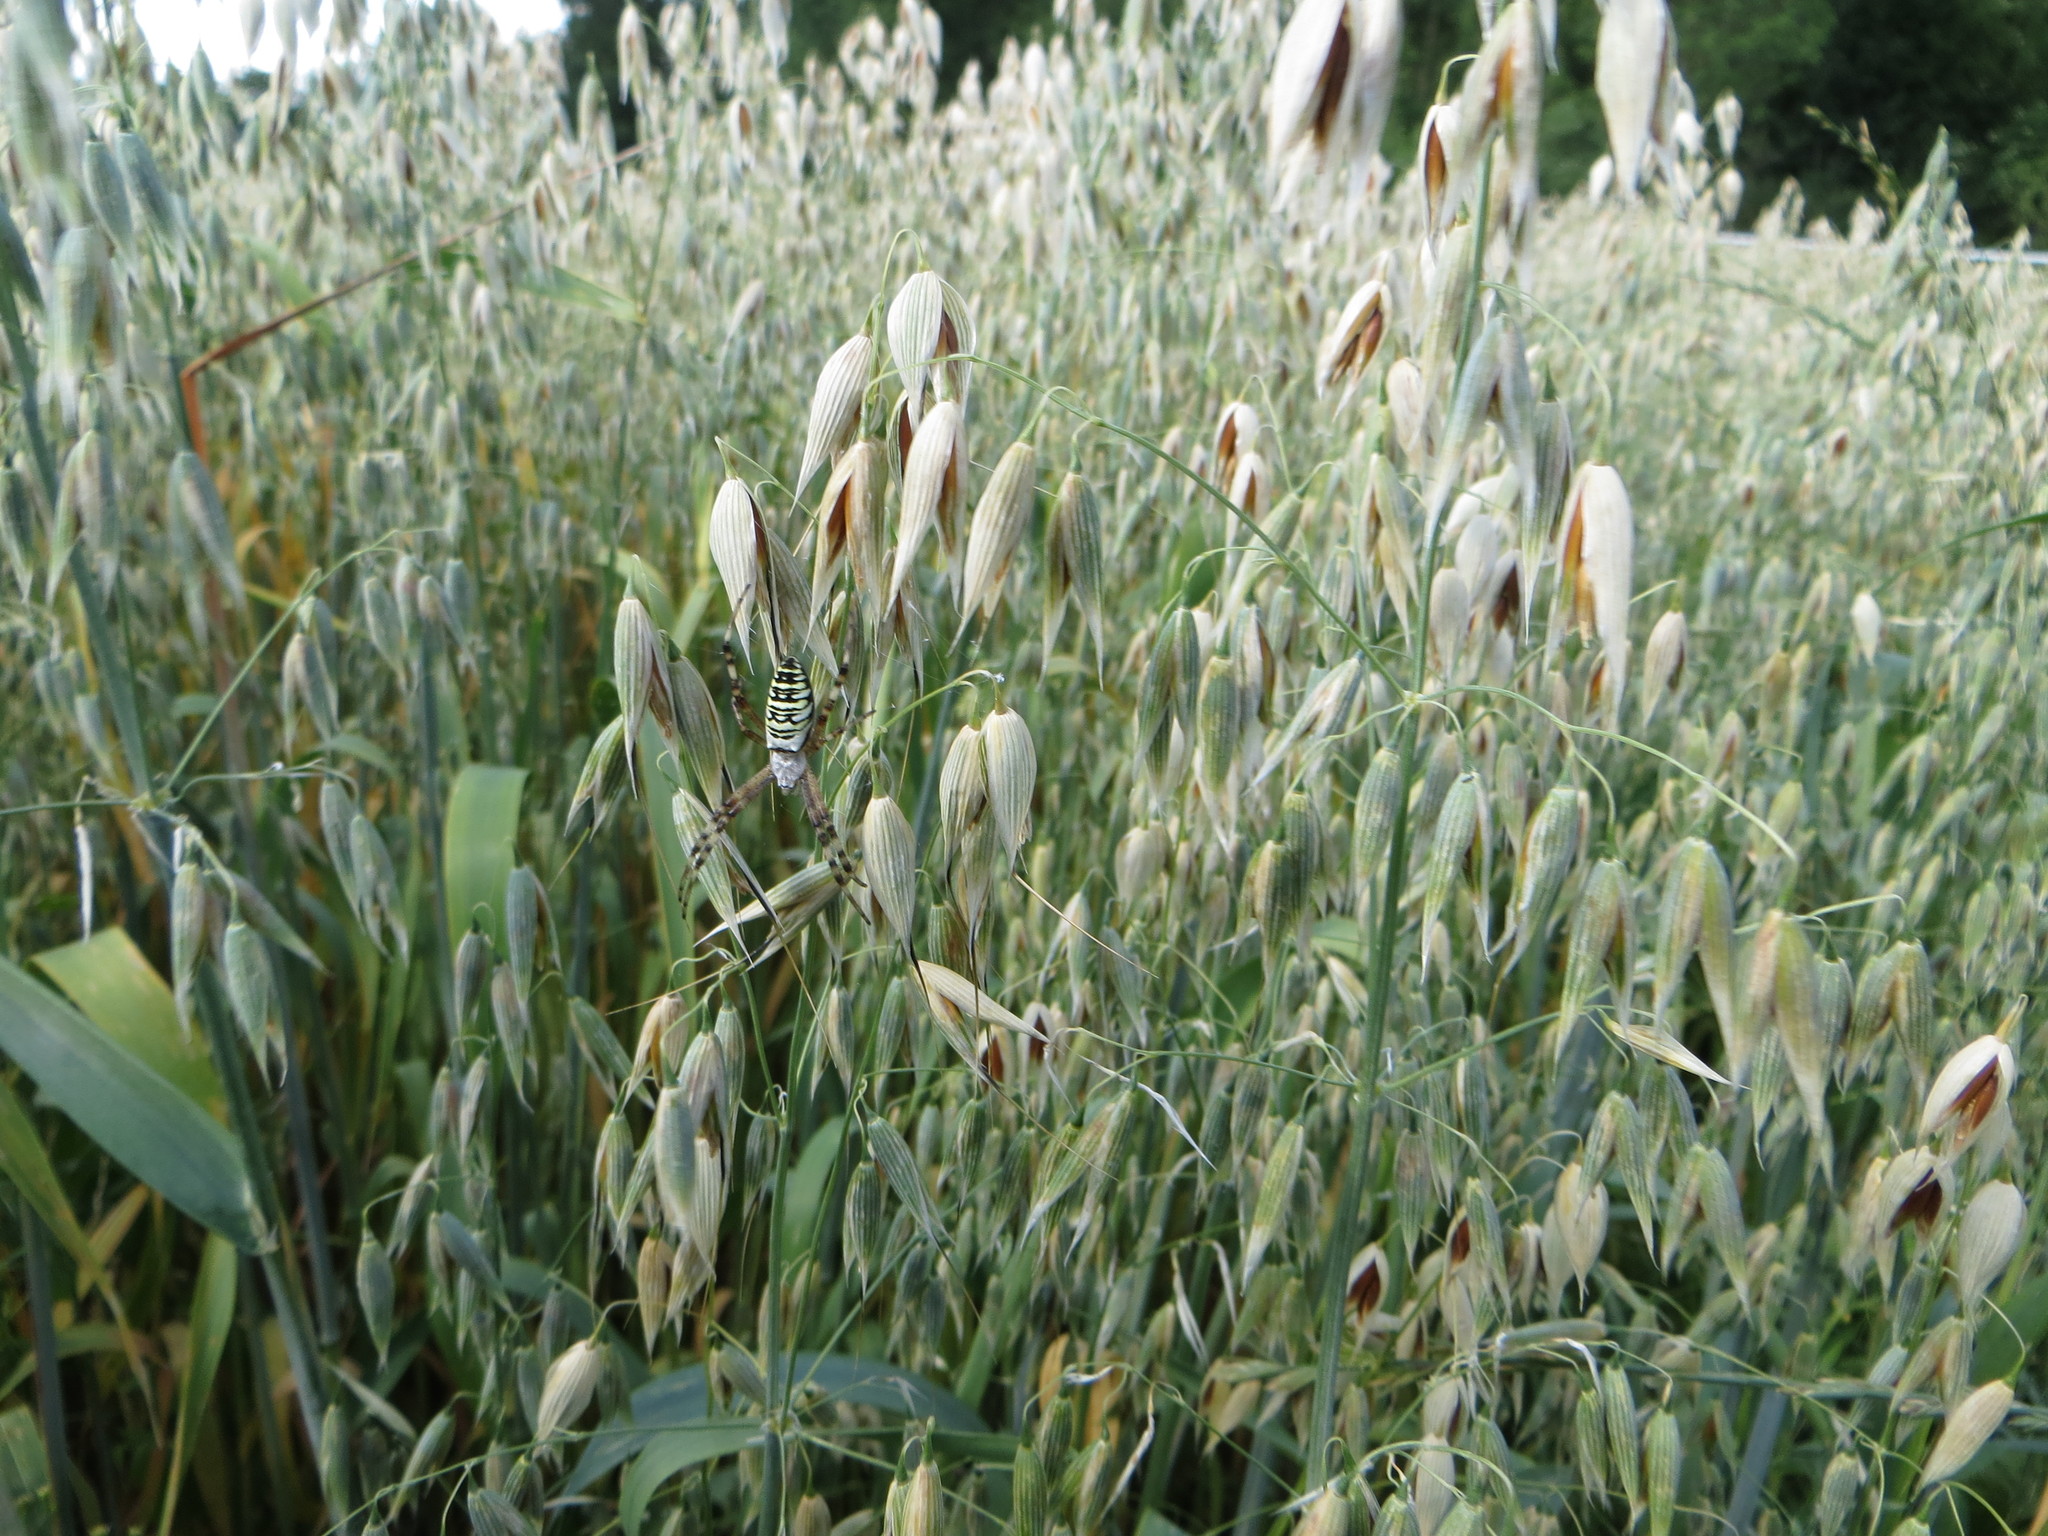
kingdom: Animalia
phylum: Arthropoda
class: Arachnida
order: Araneae
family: Araneidae
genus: Argiope
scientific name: Argiope bruennichi
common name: Wasp spider
